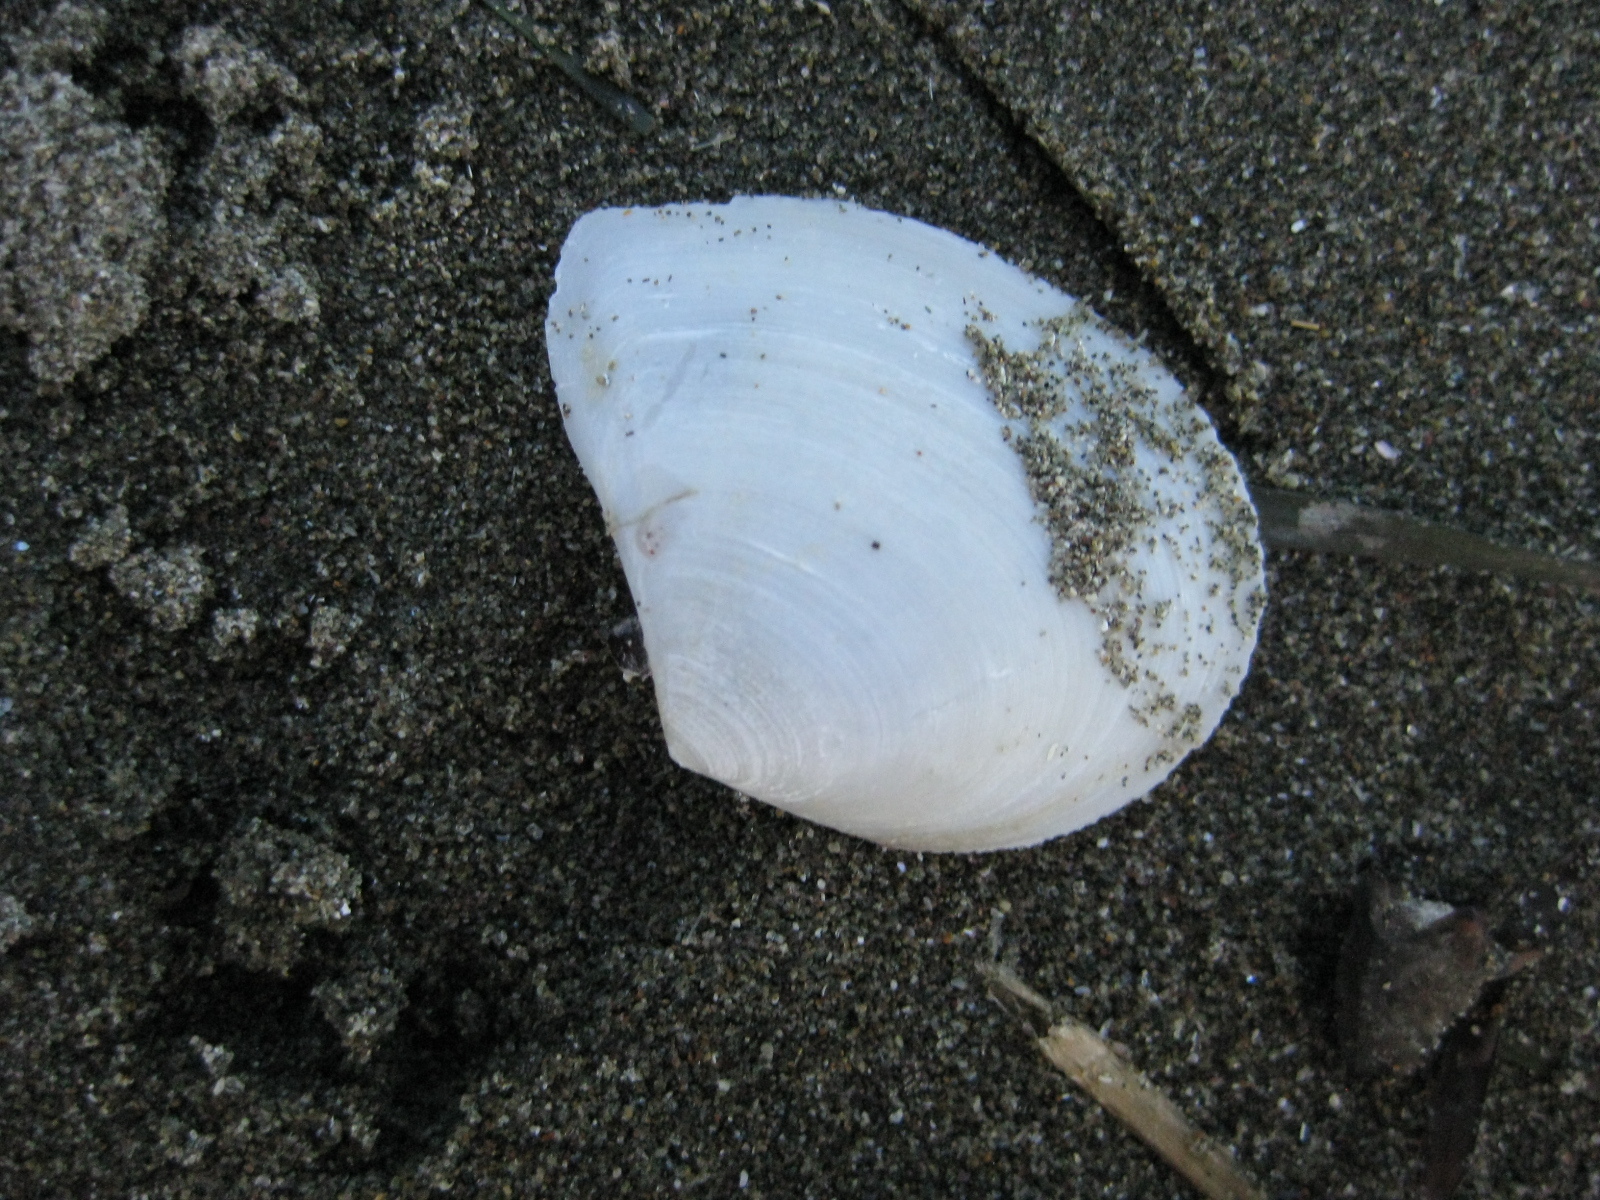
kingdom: Animalia
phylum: Mollusca
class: Bivalvia
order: Cardiida
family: Tellinidae
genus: Macomona
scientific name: Macomona liliana
